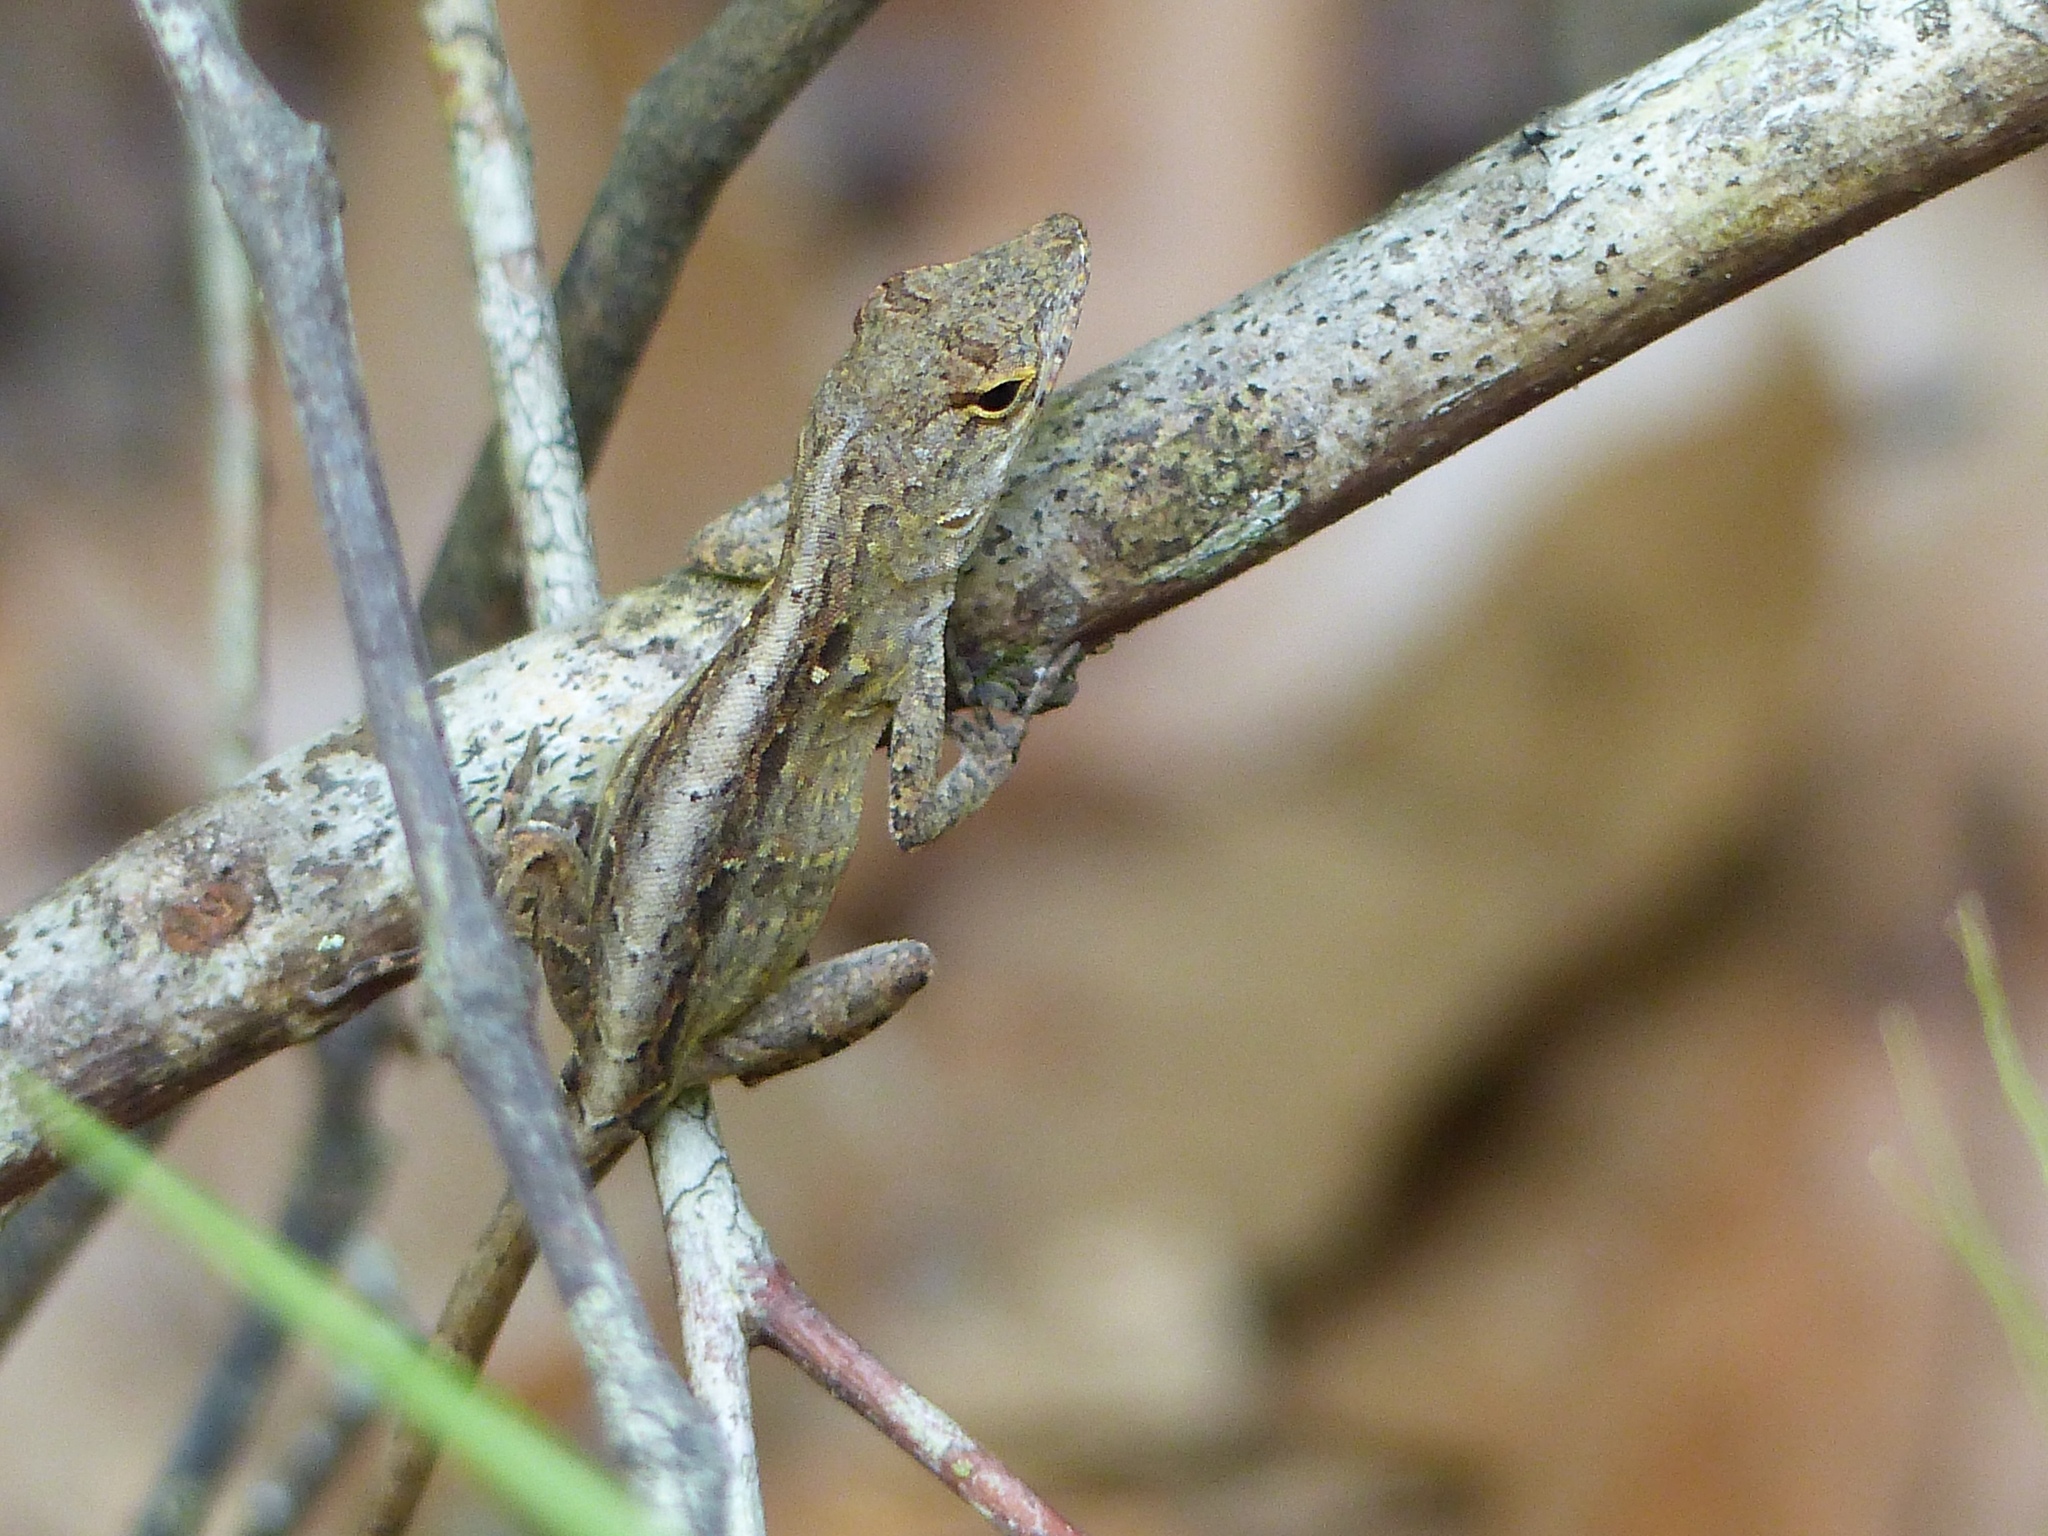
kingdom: Animalia
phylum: Chordata
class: Squamata
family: Dactyloidae
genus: Anolis
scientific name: Anolis sagrei
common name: Brown anole
